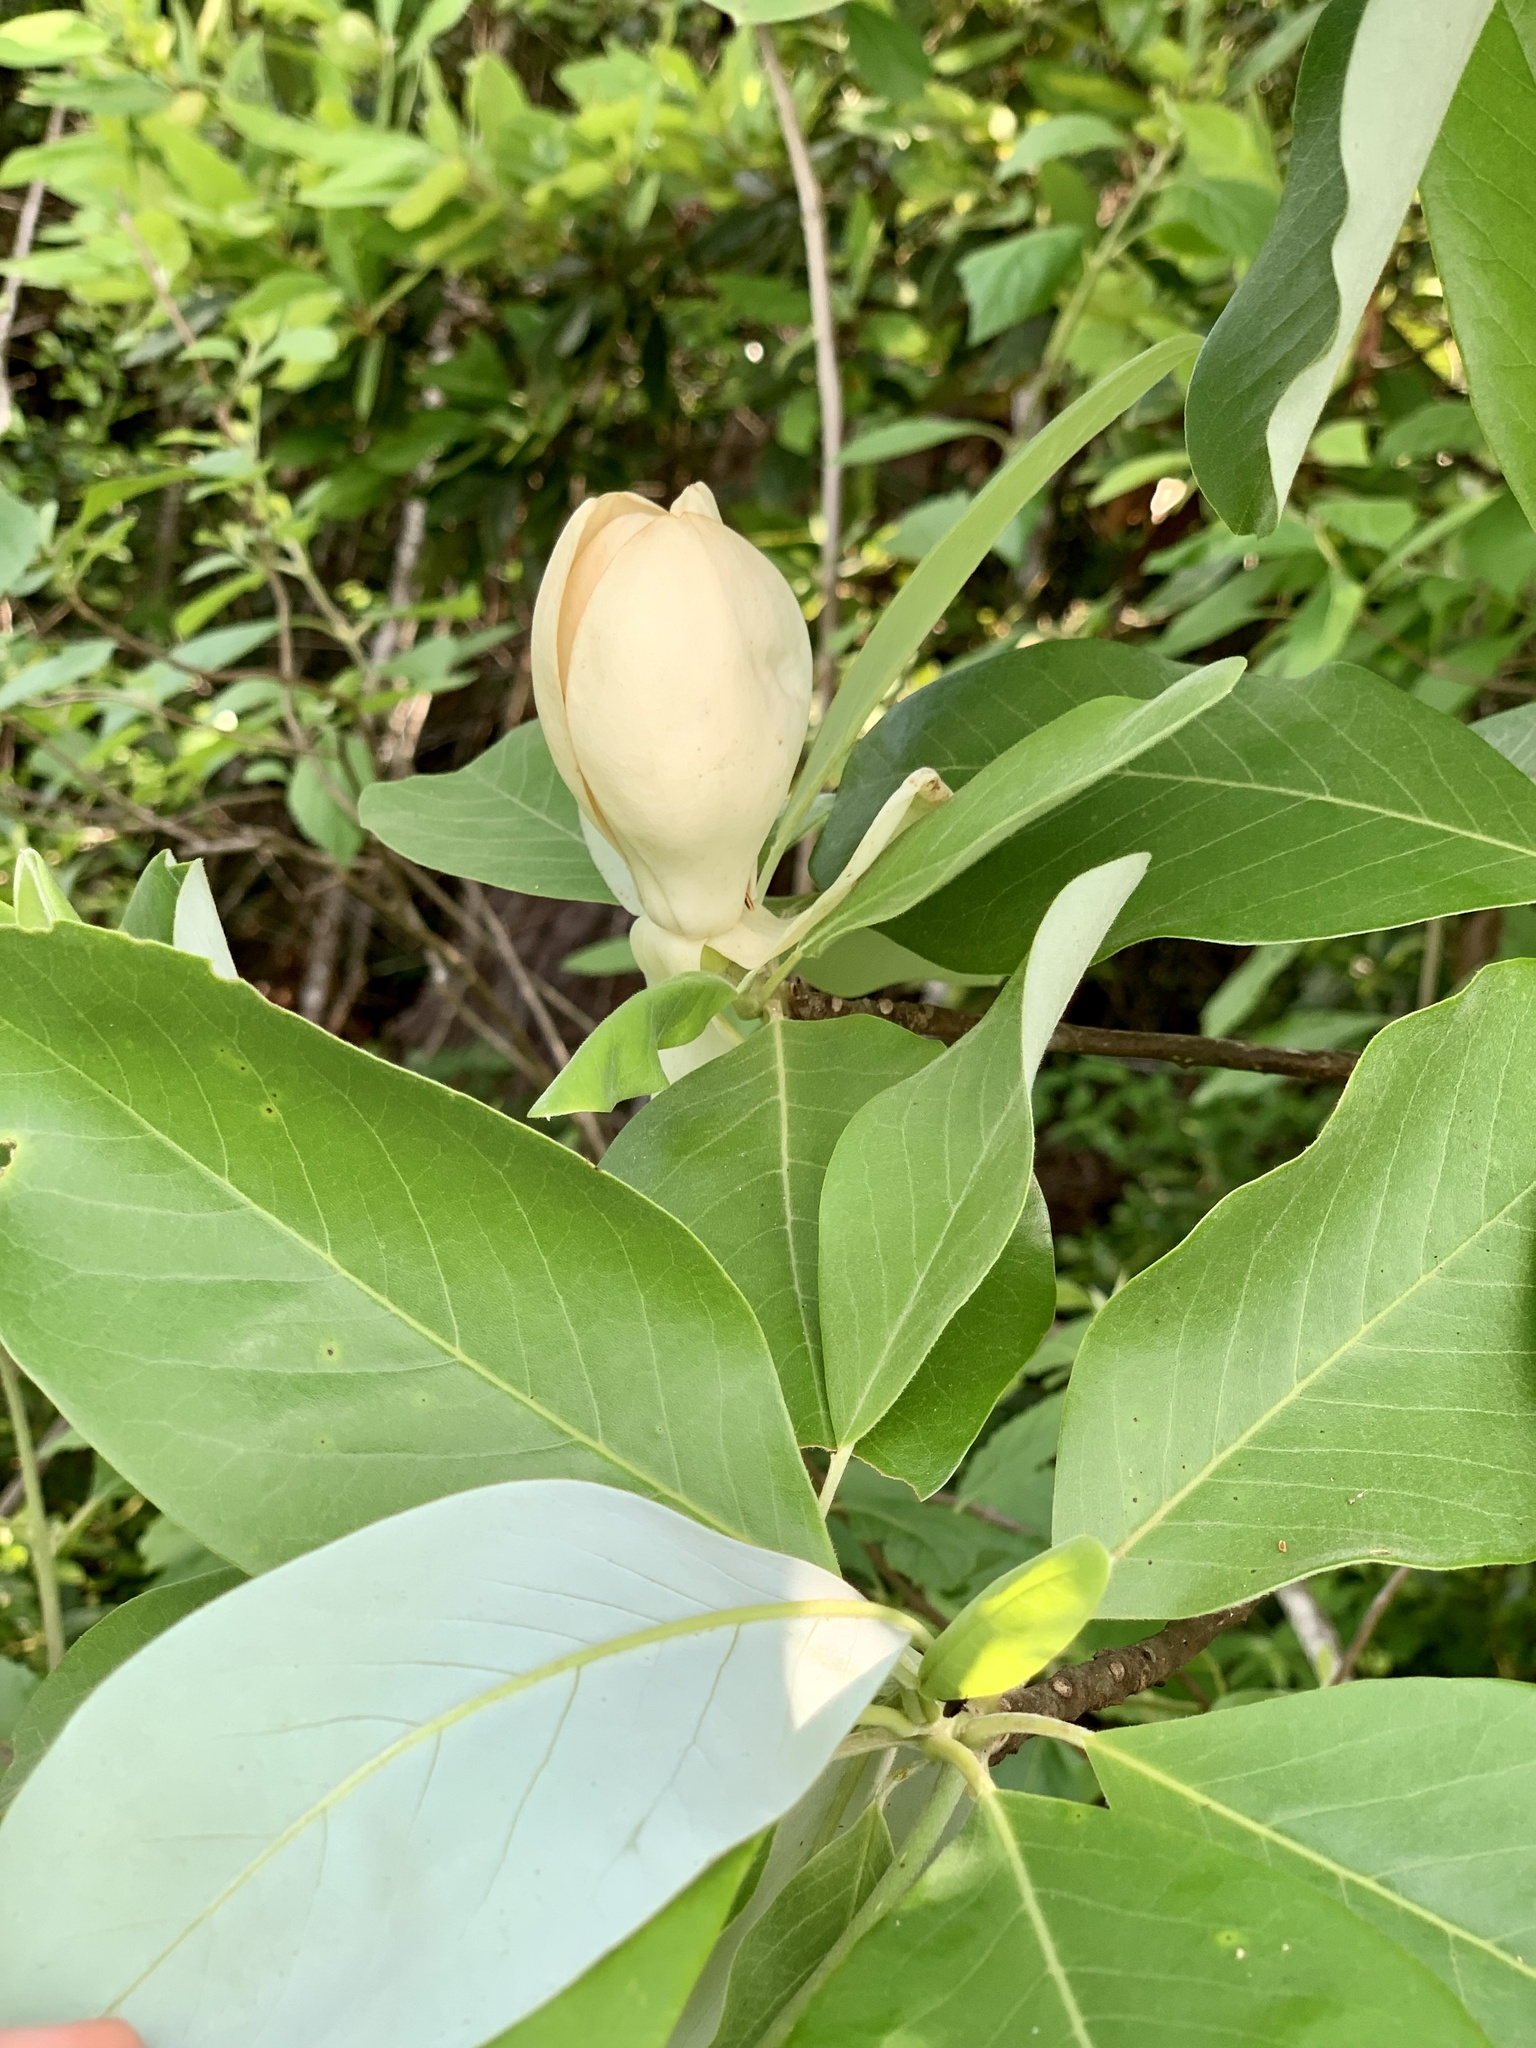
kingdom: Plantae
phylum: Tracheophyta
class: Magnoliopsida
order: Magnoliales
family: Magnoliaceae
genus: Magnolia
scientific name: Magnolia virginiana
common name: Swamp bay
